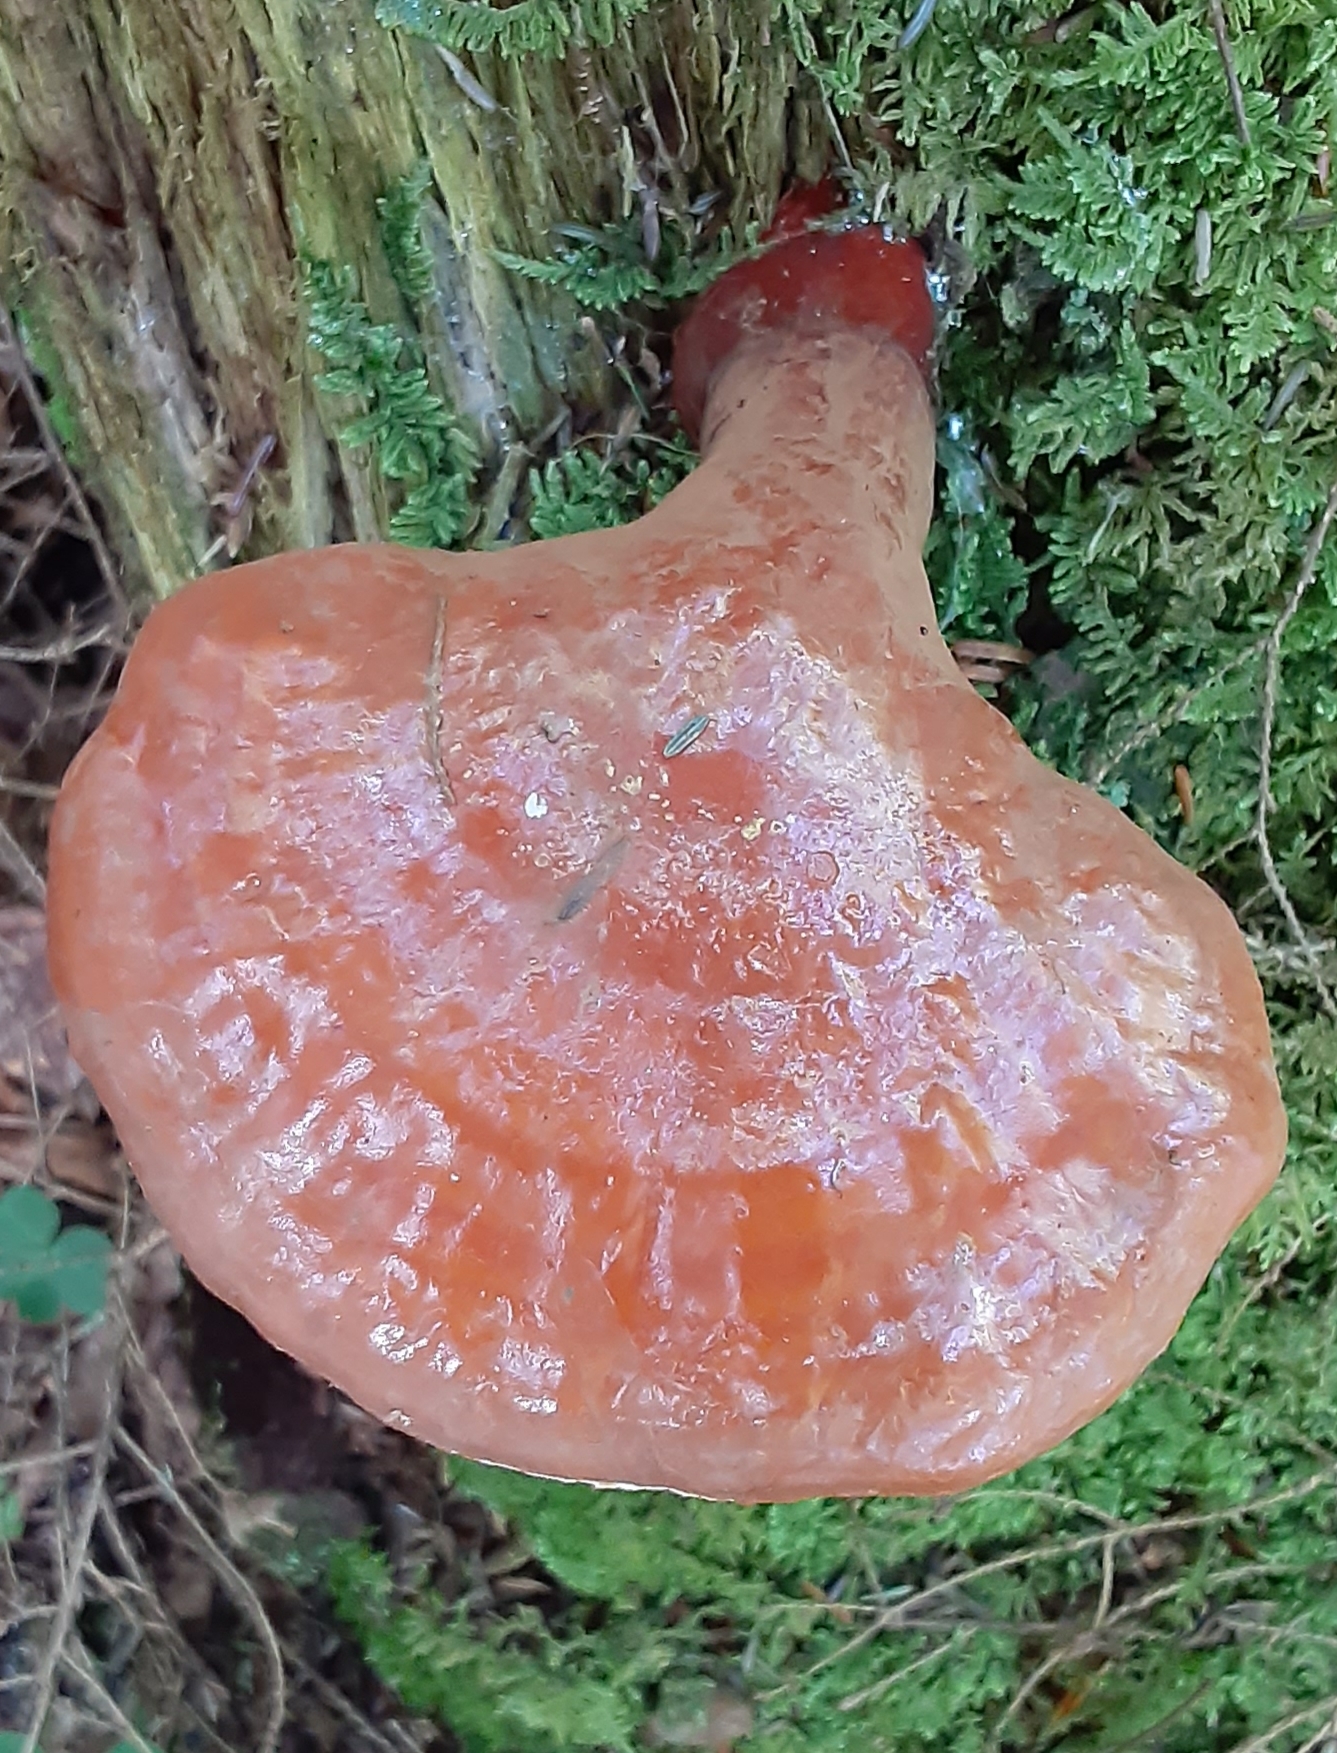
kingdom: Fungi
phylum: Basidiomycota
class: Agaricomycetes
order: Polyporales
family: Polyporaceae
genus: Ganoderma
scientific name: Ganoderma tsugae
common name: Hemlock varnish shelf
